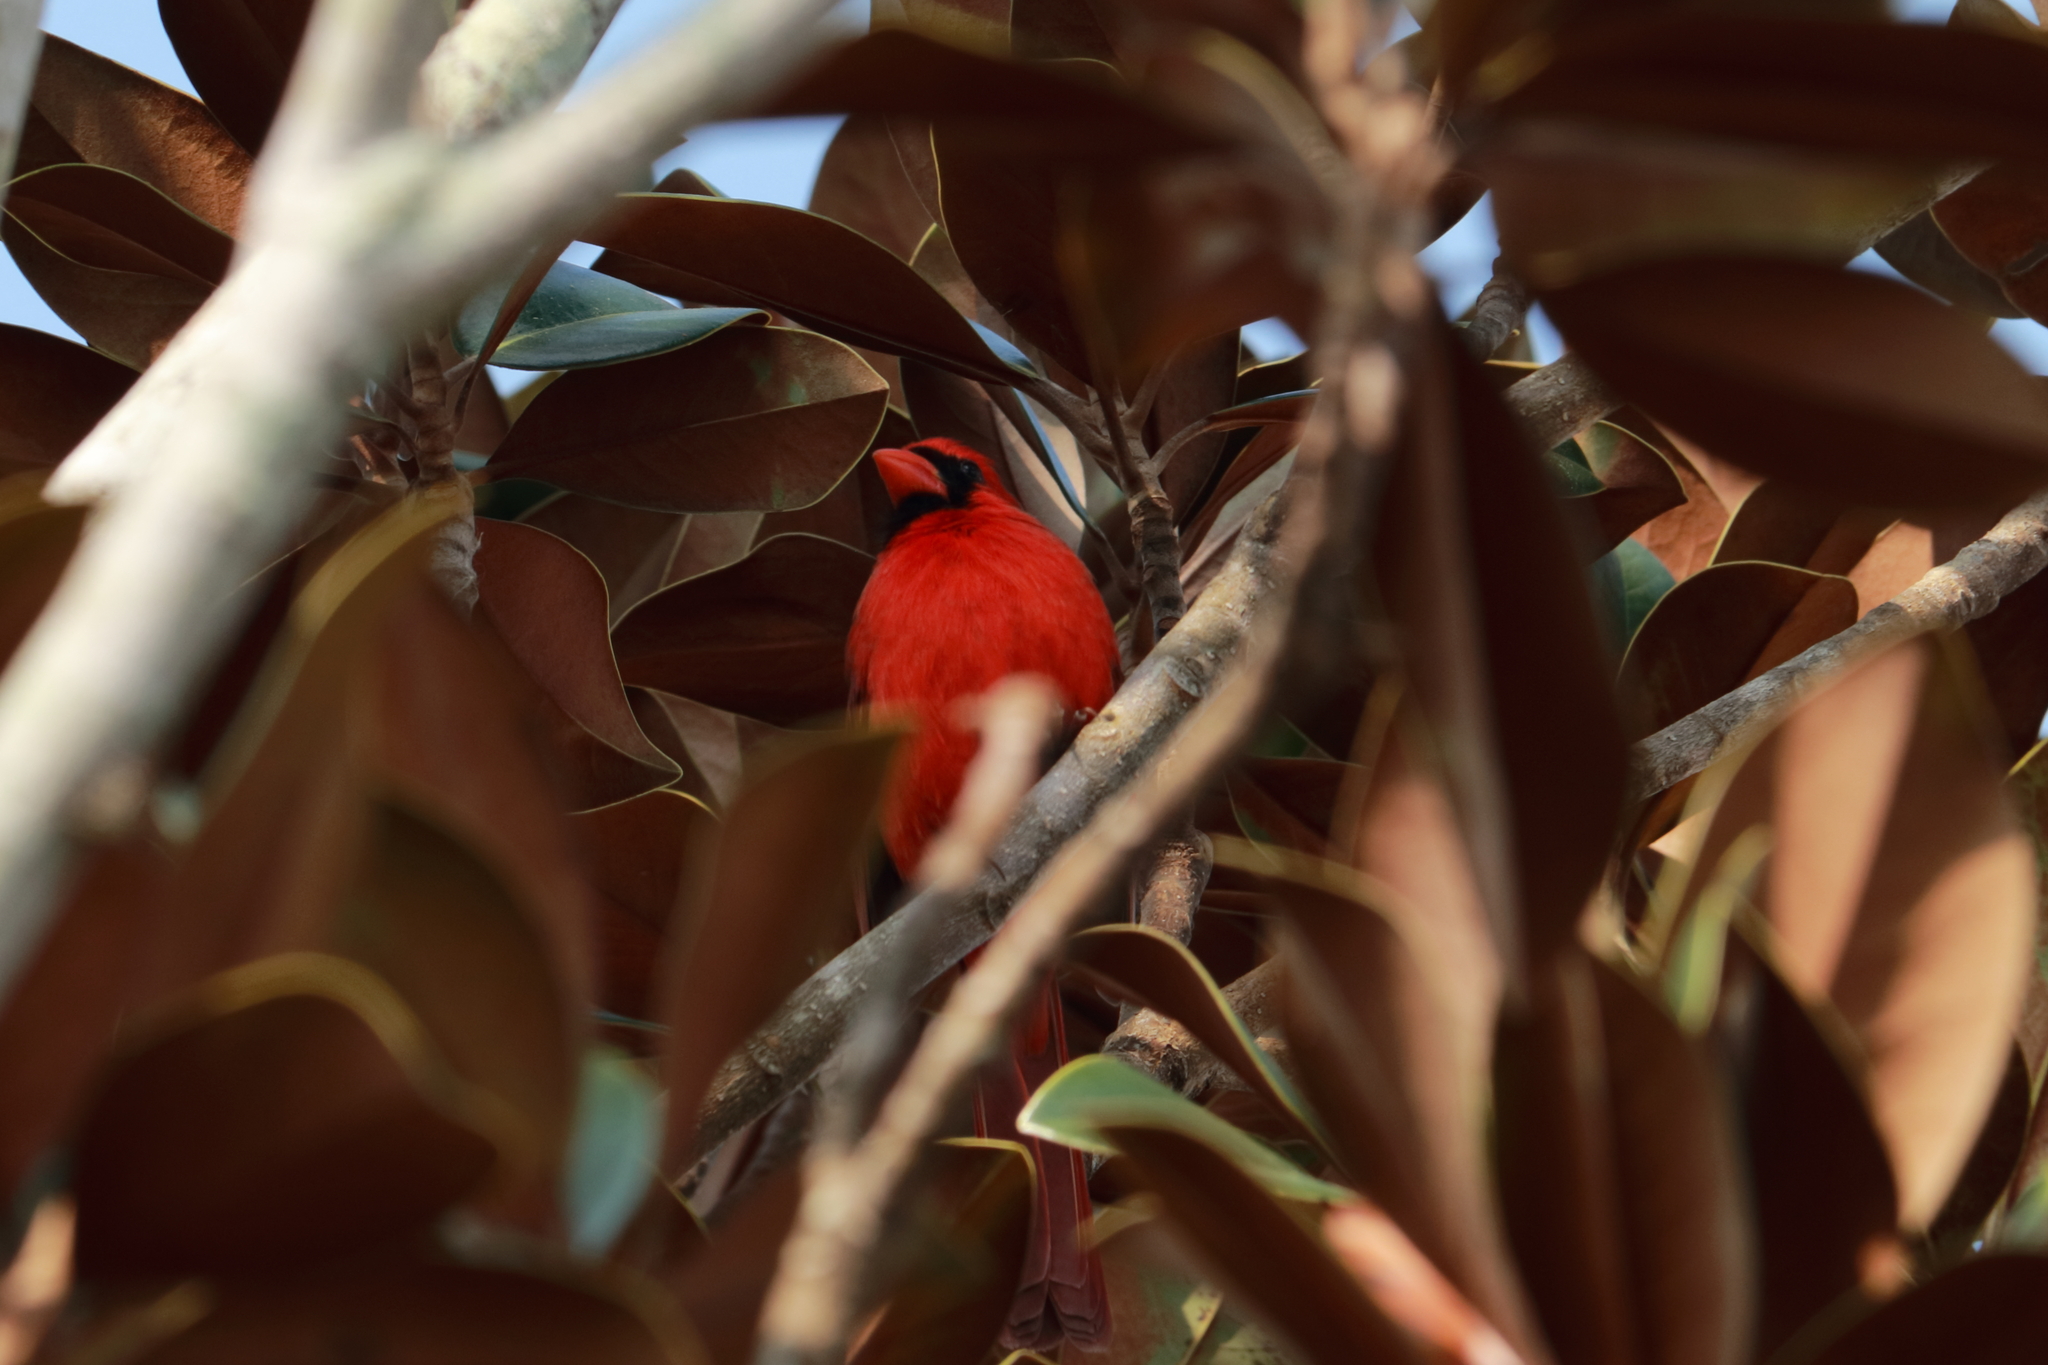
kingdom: Animalia
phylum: Chordata
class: Aves
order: Passeriformes
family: Cardinalidae
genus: Cardinalis
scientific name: Cardinalis cardinalis
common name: Northern cardinal
